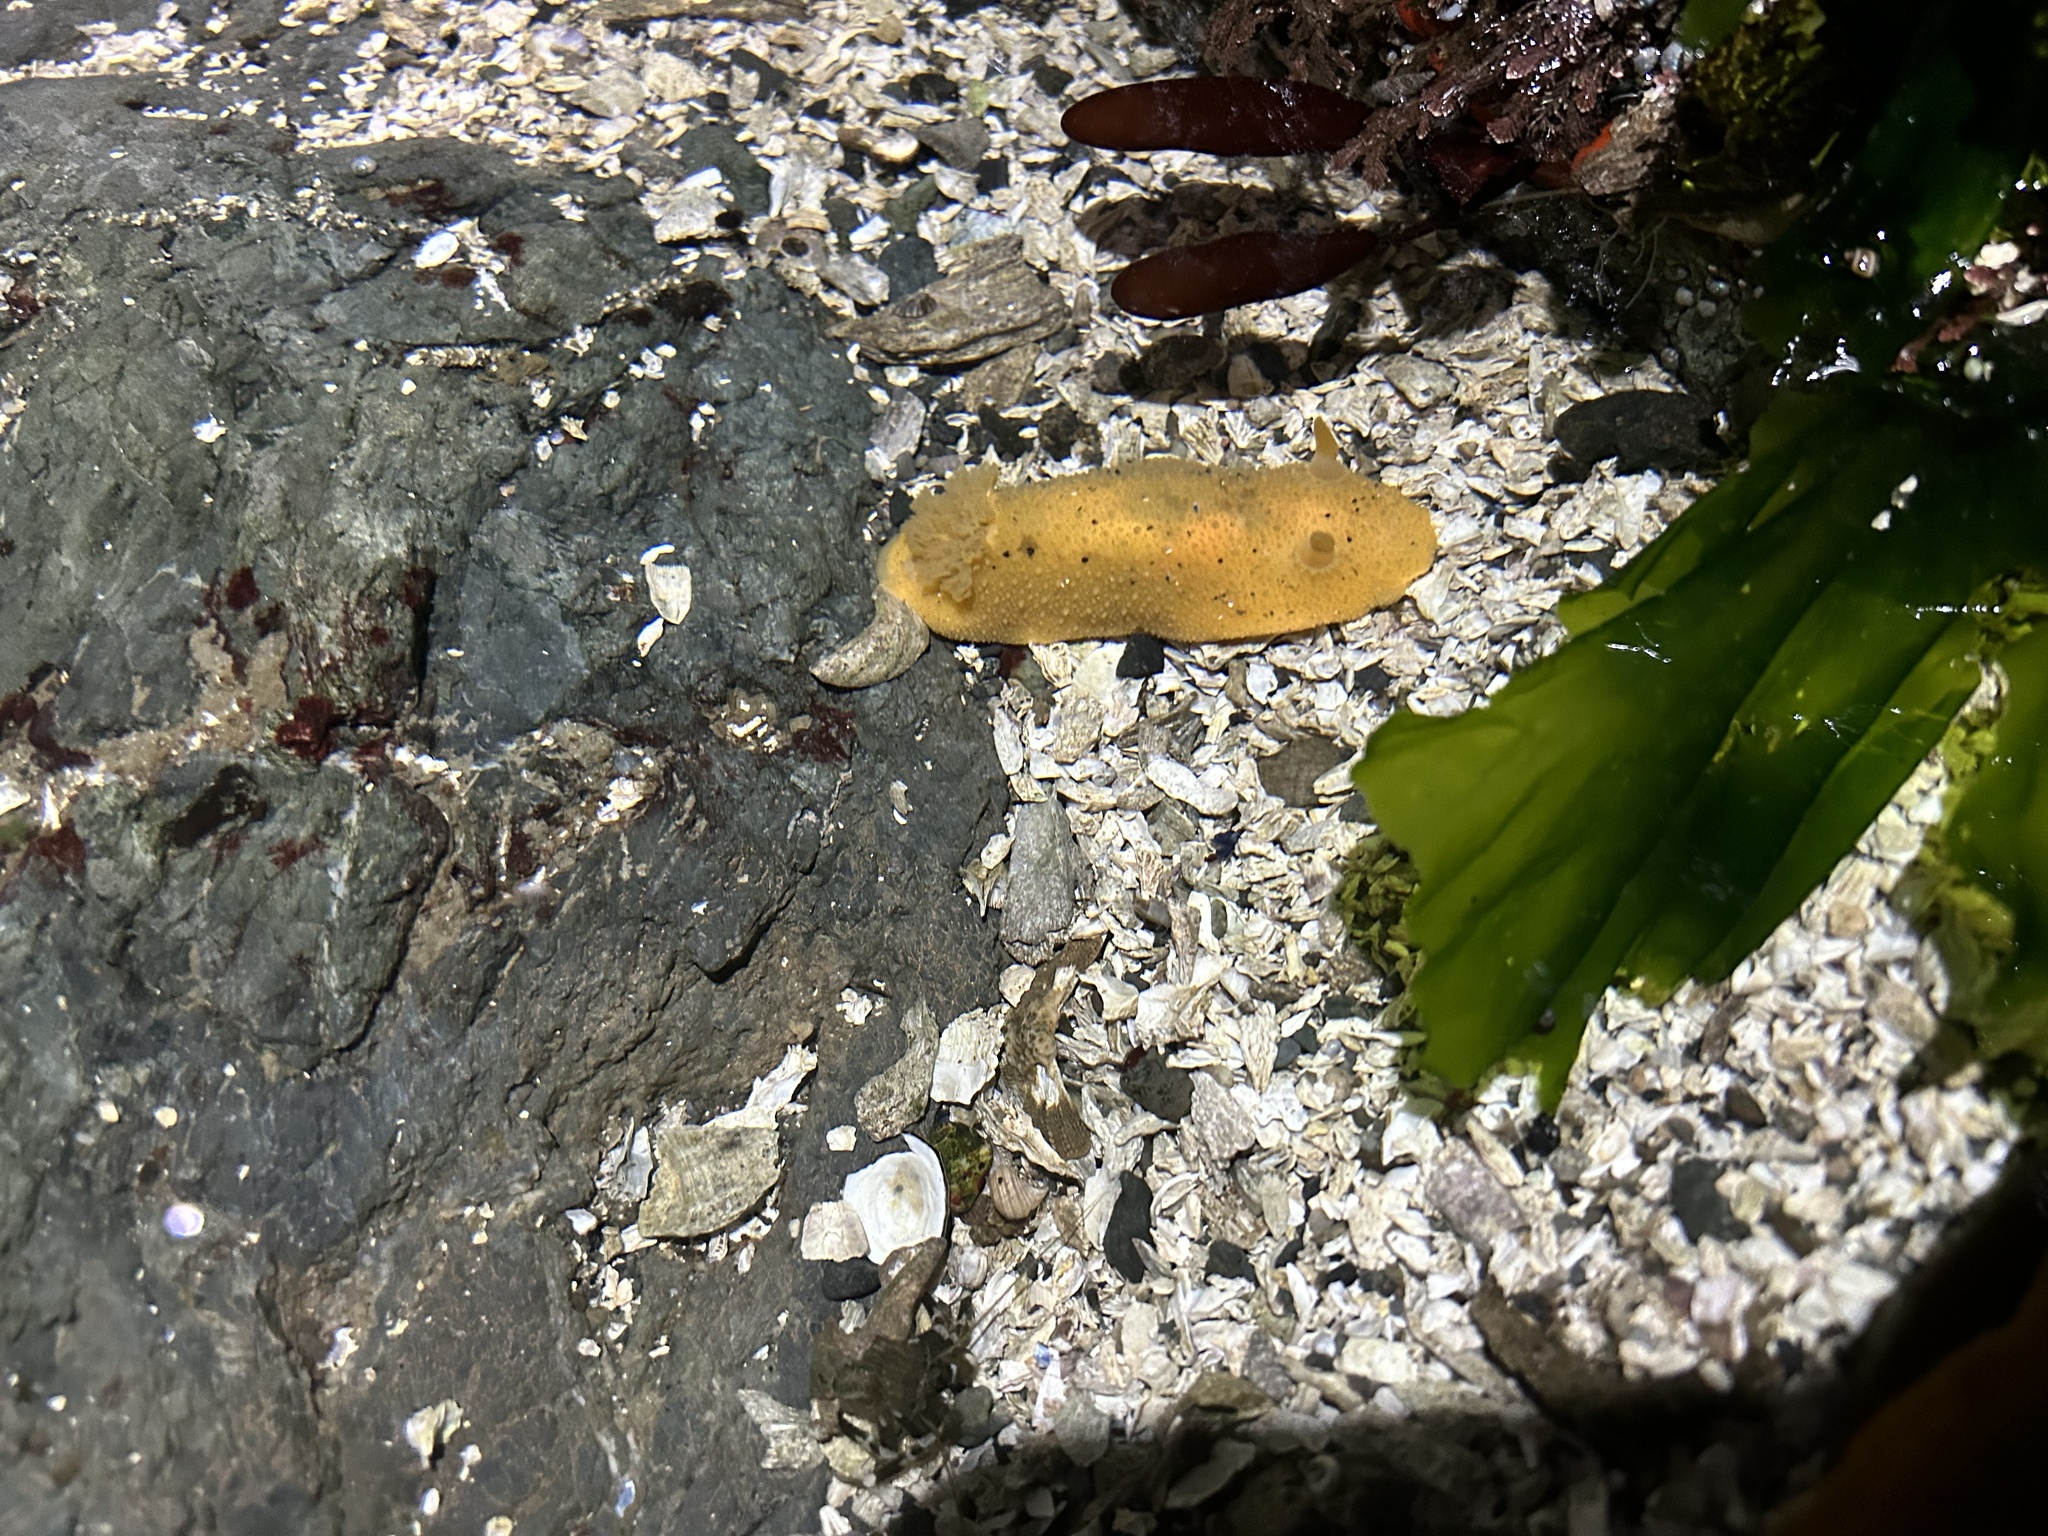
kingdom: Animalia
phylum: Mollusca
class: Gastropoda
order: Nudibranchia
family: Dorididae
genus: Doris
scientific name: Doris montereyensis
